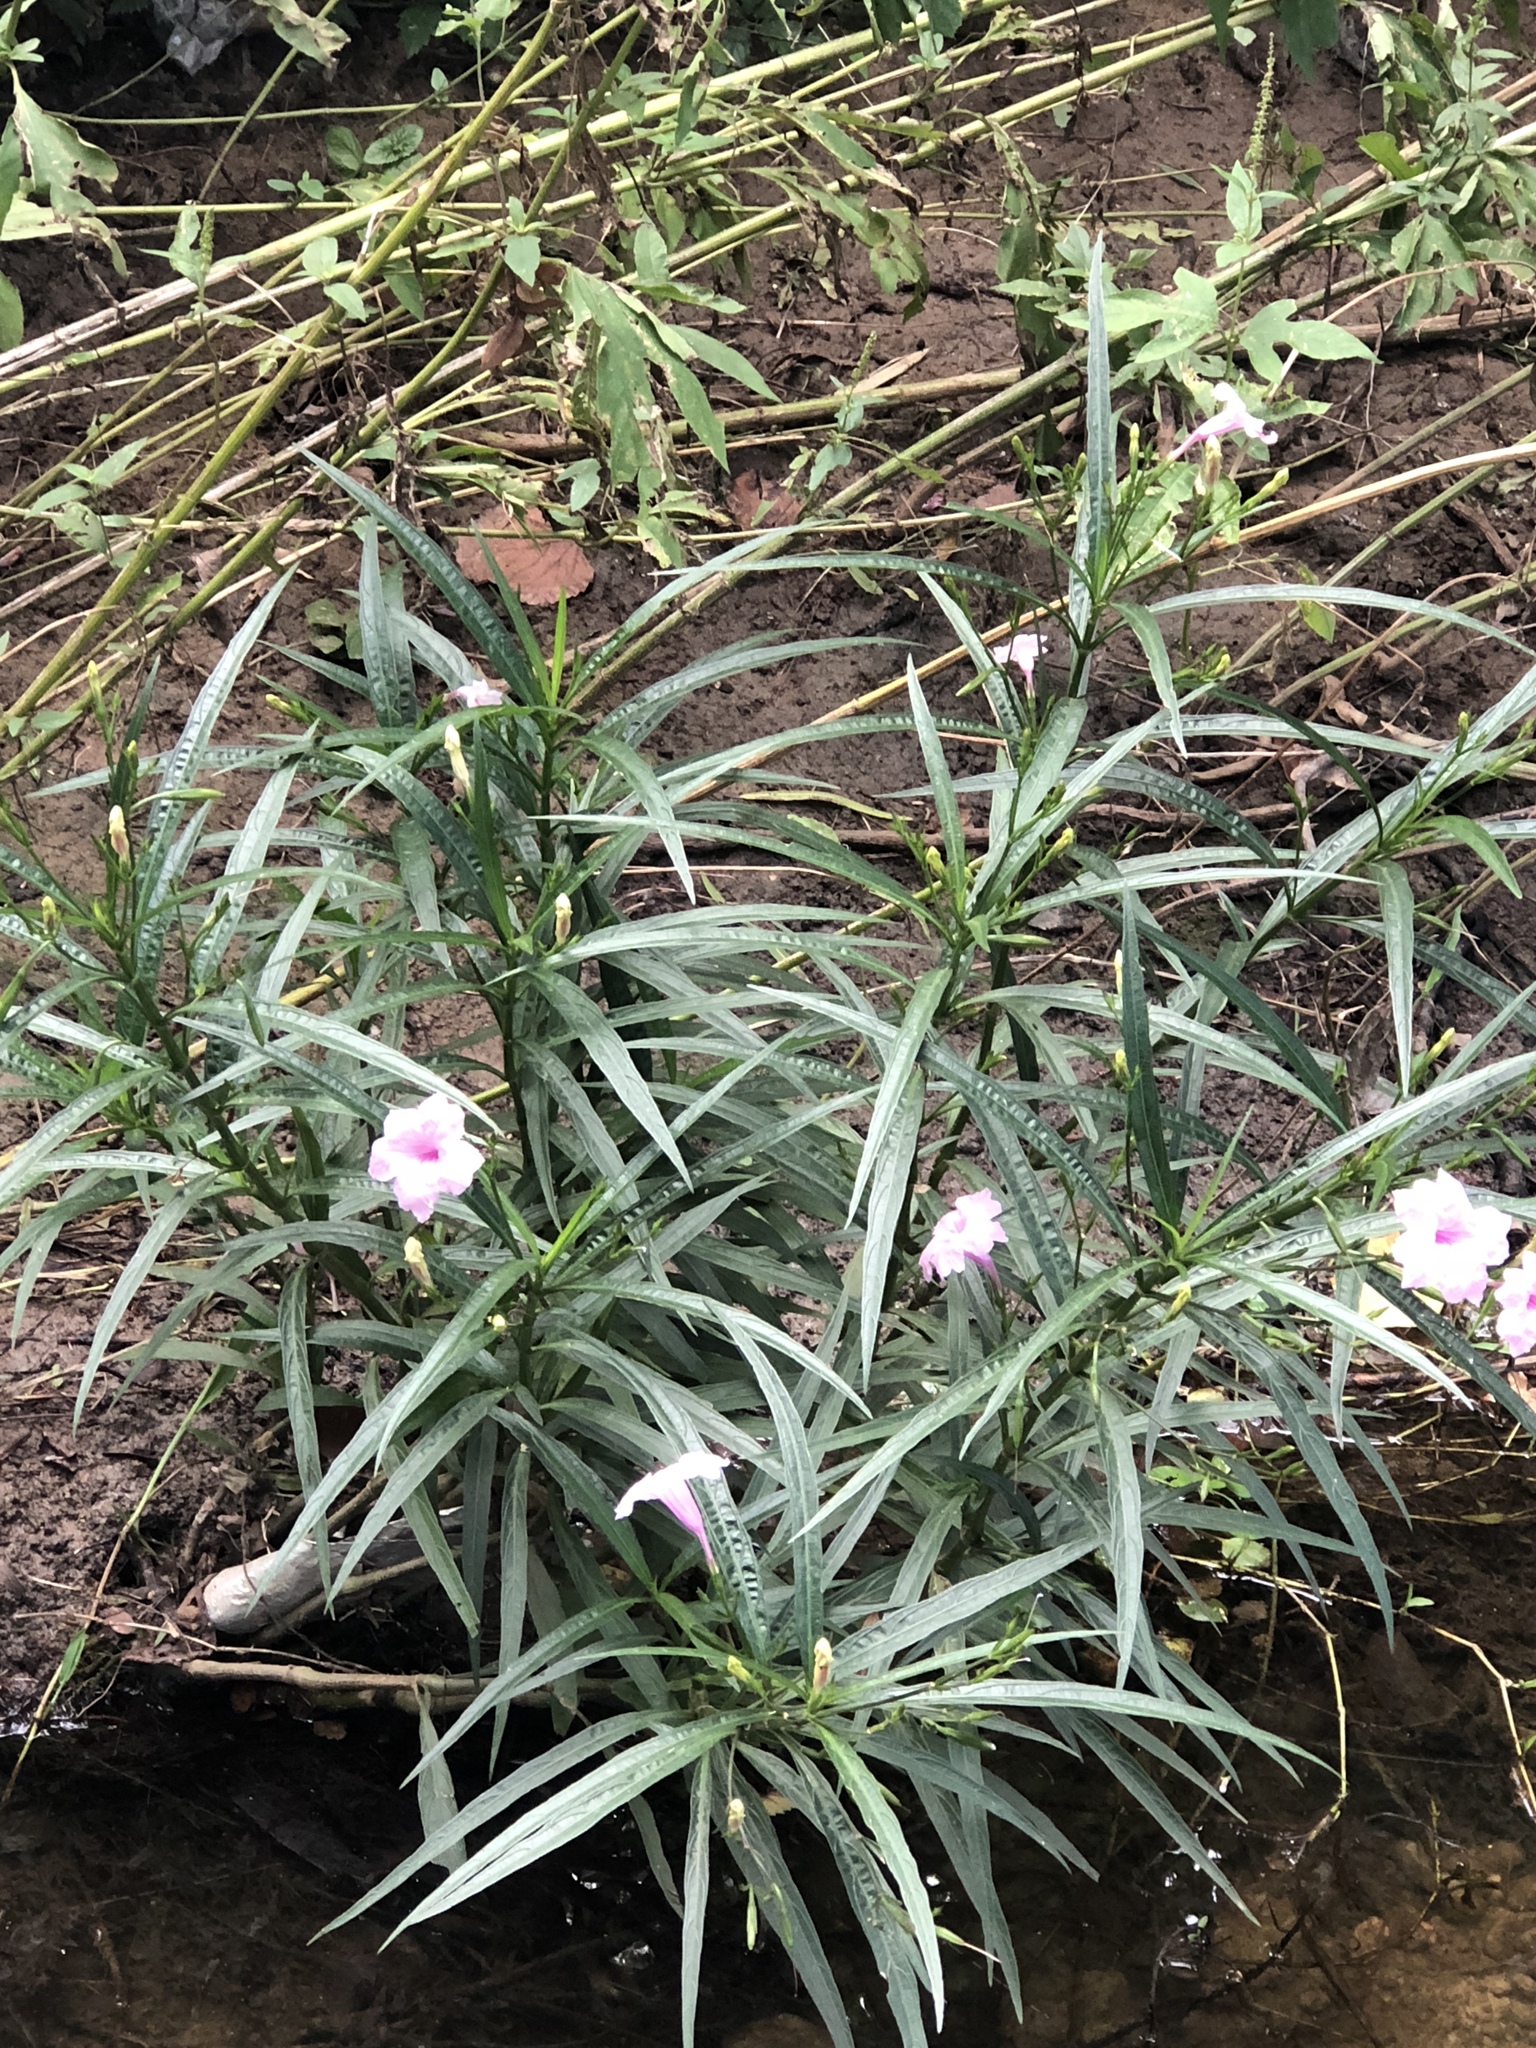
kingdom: Plantae
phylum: Tracheophyta
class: Magnoliopsida
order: Lamiales
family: Acanthaceae
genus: Ruellia
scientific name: Ruellia simplex
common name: Softseed wild petunia
